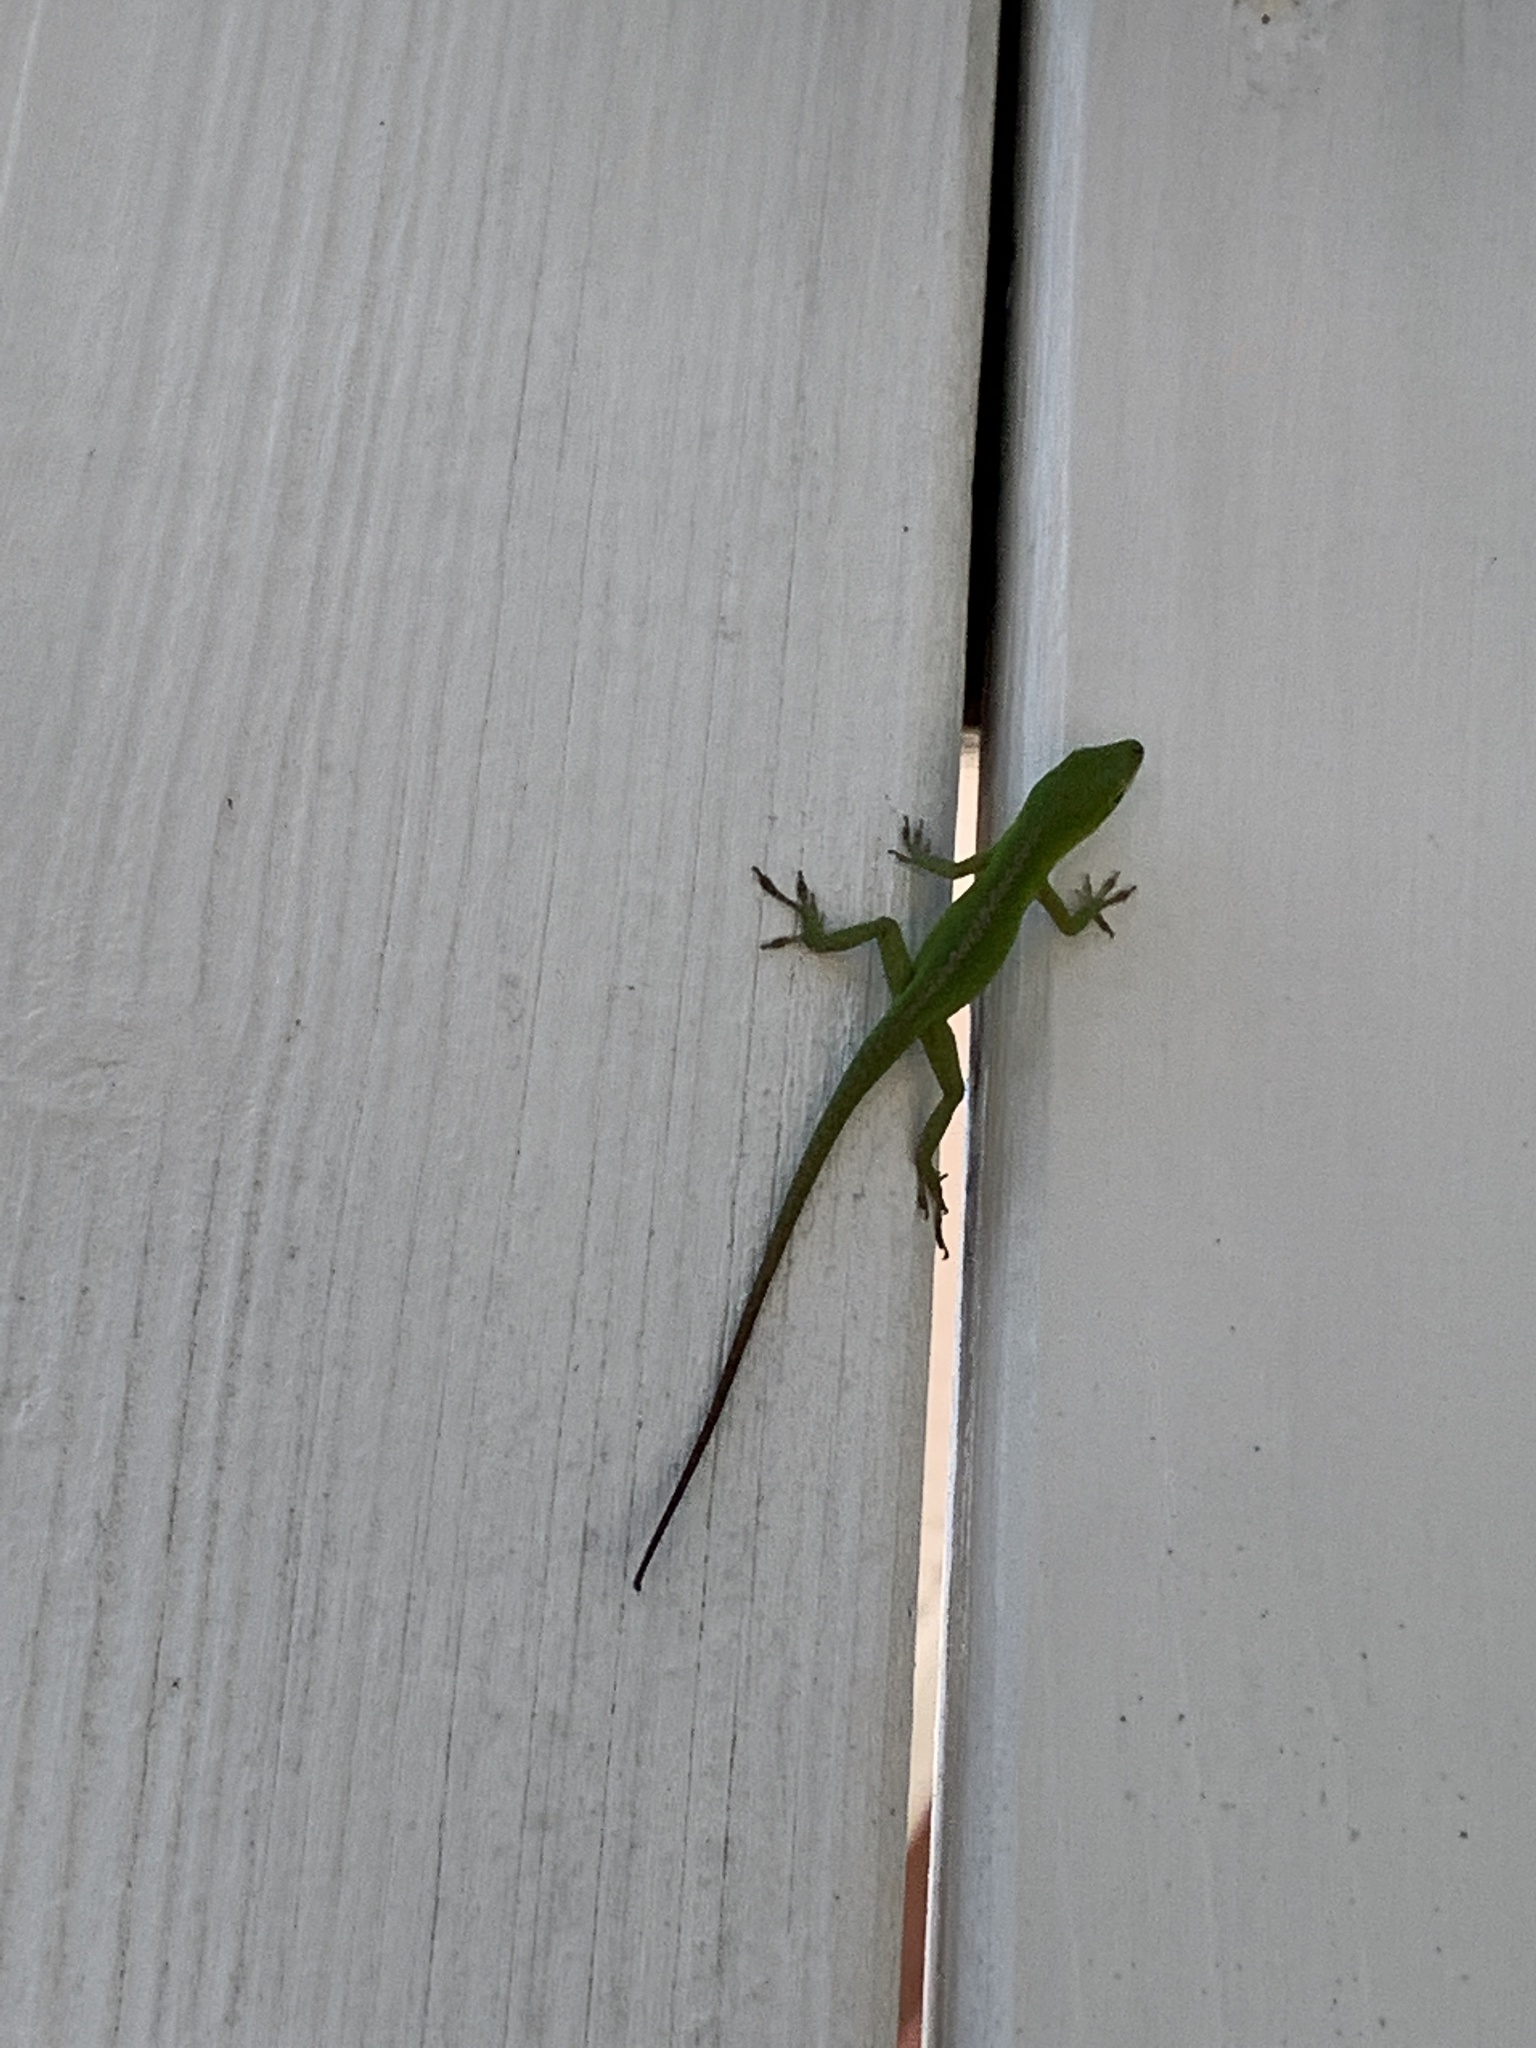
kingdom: Animalia
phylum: Chordata
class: Squamata
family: Dactyloidae
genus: Anolis
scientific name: Anolis carolinensis
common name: Green anole
